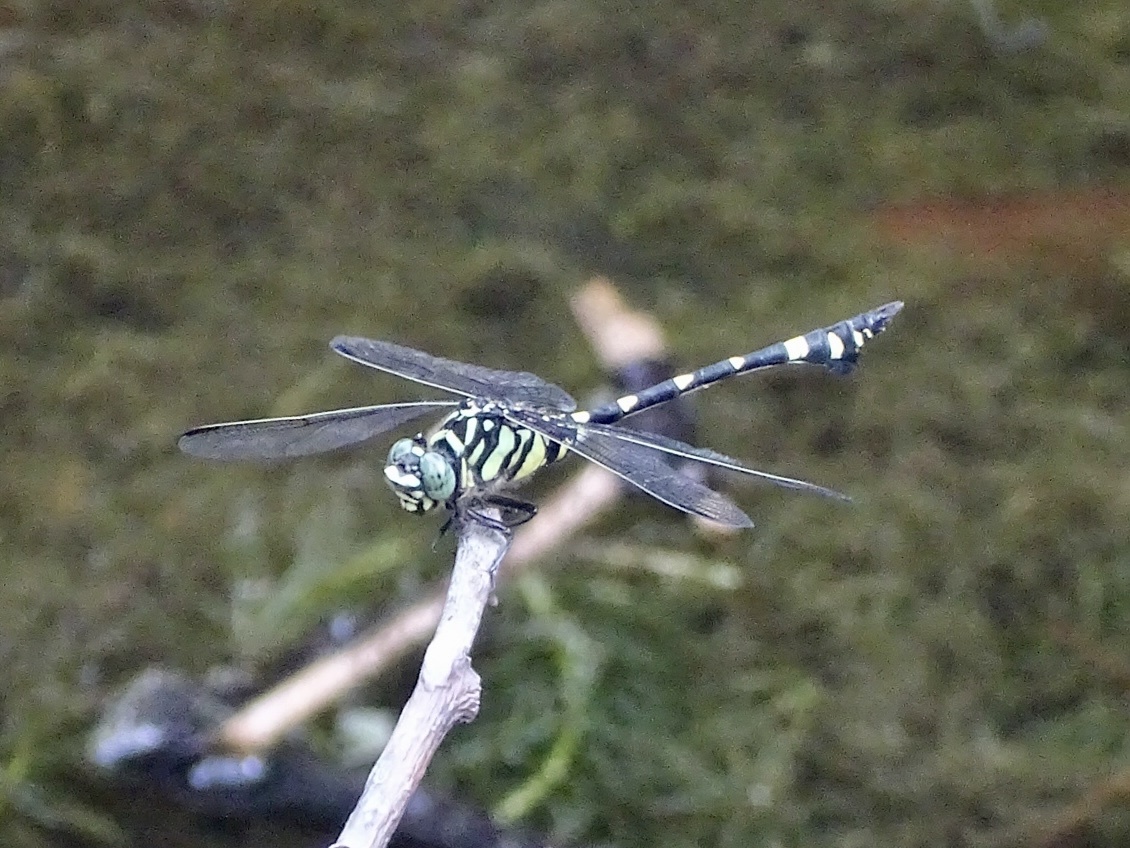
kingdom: Animalia
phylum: Arthropoda
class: Insecta
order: Odonata
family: Gomphidae
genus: Ictinogomphus
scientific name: Ictinogomphus pertinax
